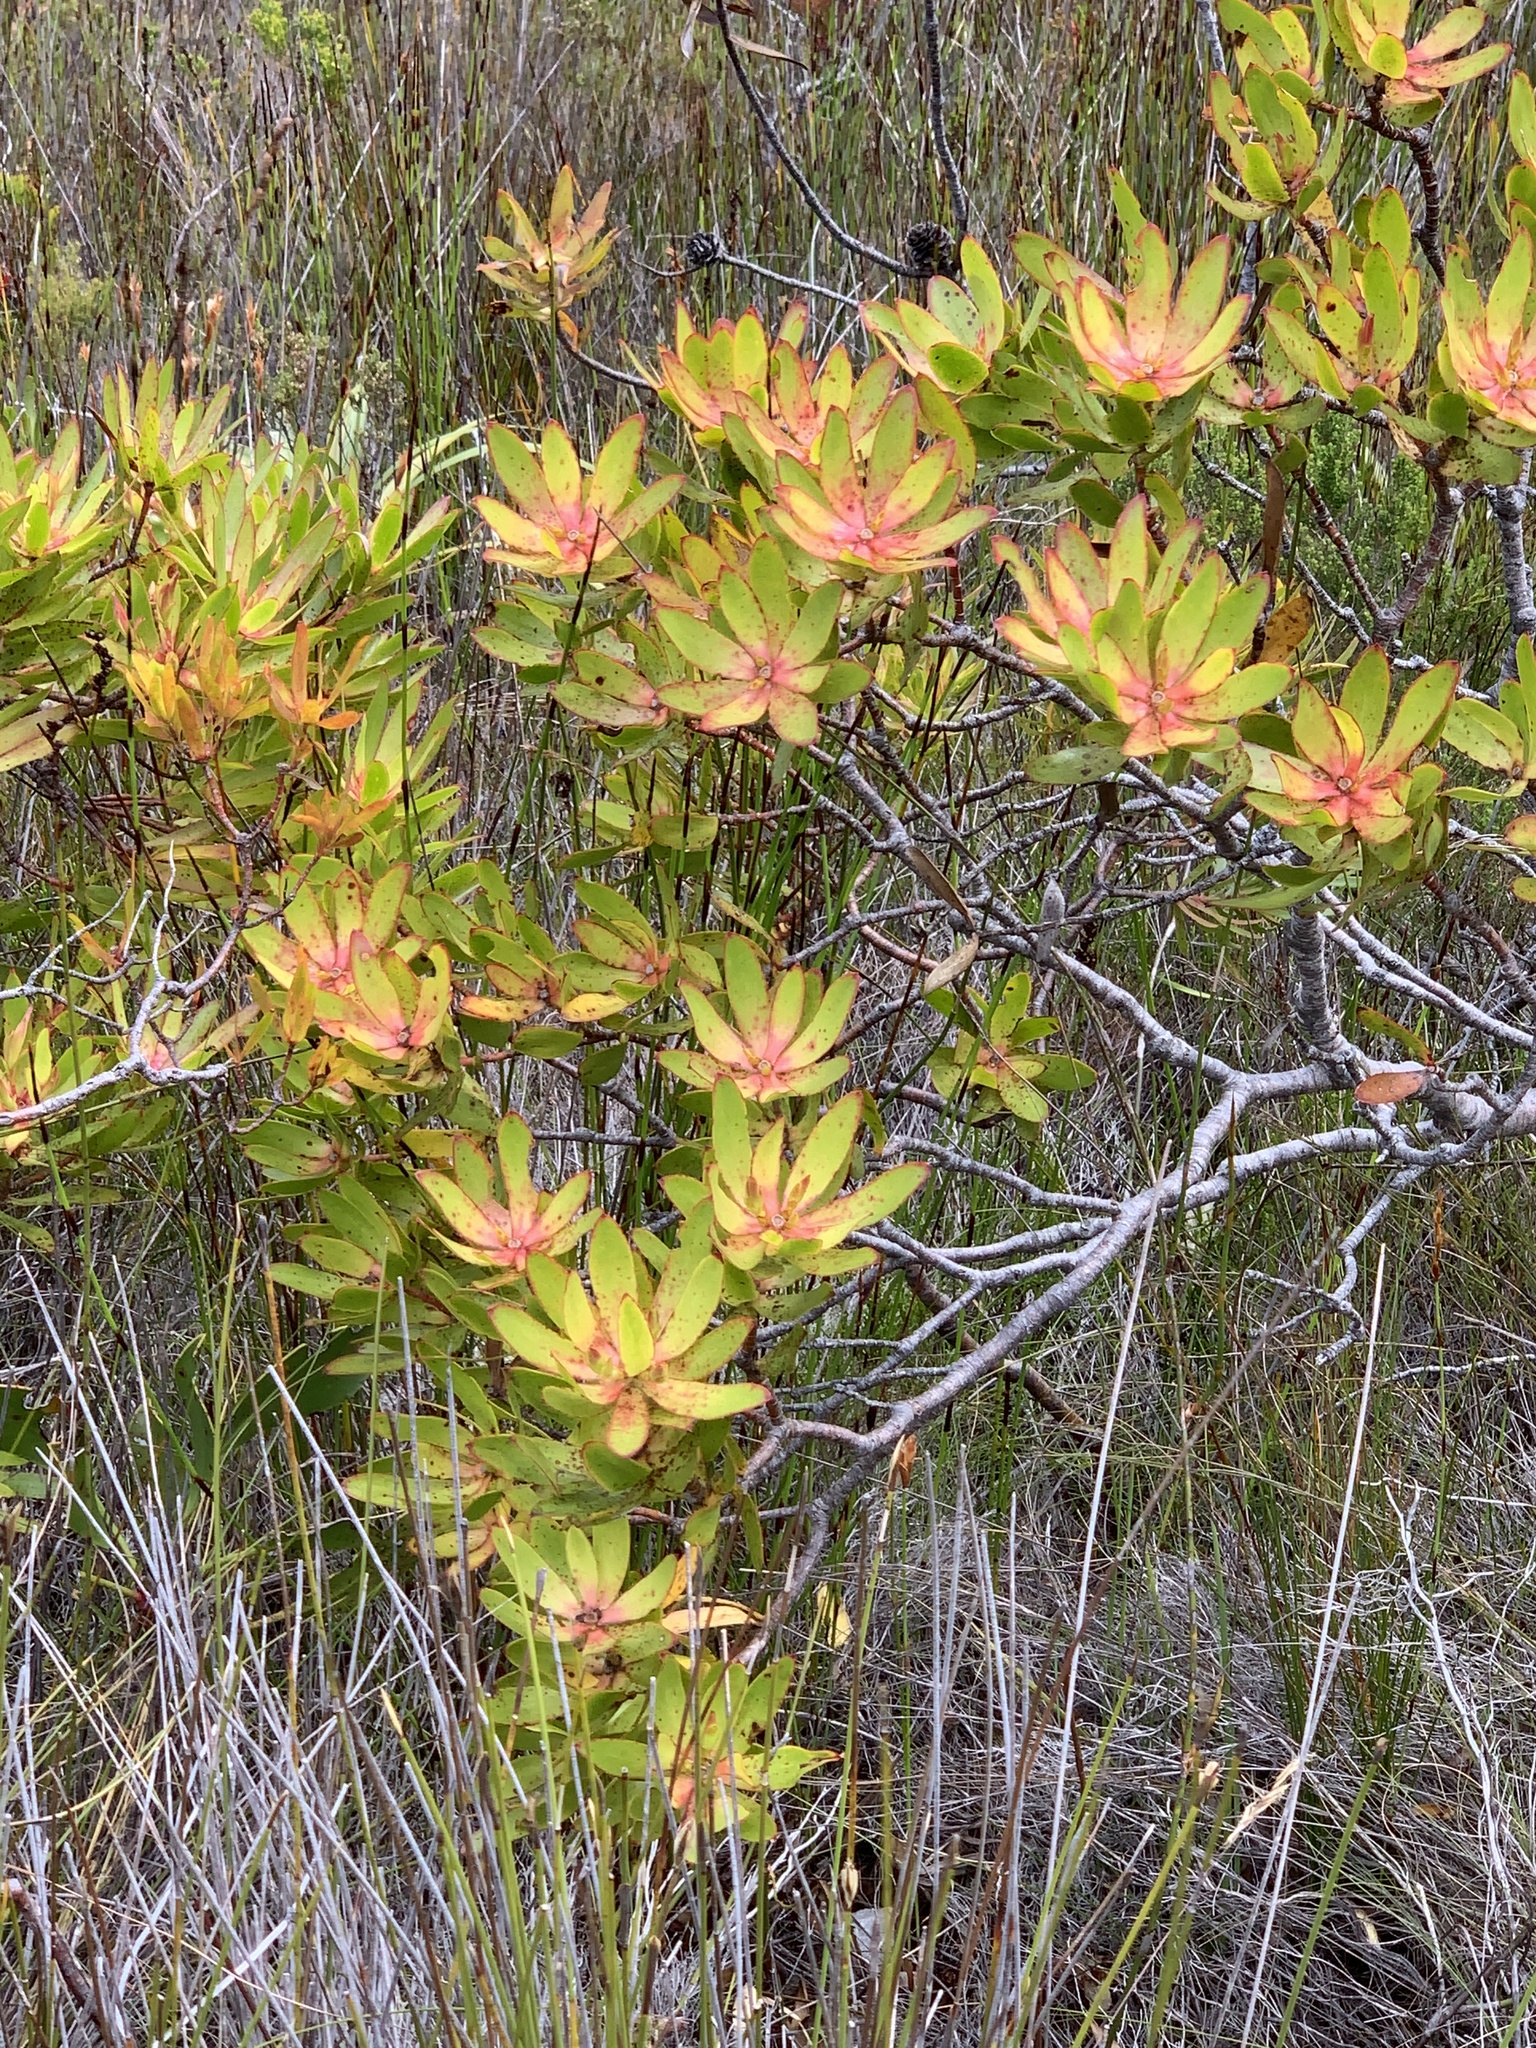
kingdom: Plantae
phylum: Tracheophyta
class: Magnoliopsida
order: Proteales
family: Proteaceae
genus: Leucadendron
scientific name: Leucadendron gandogeri
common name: Broad-leaf conebush
